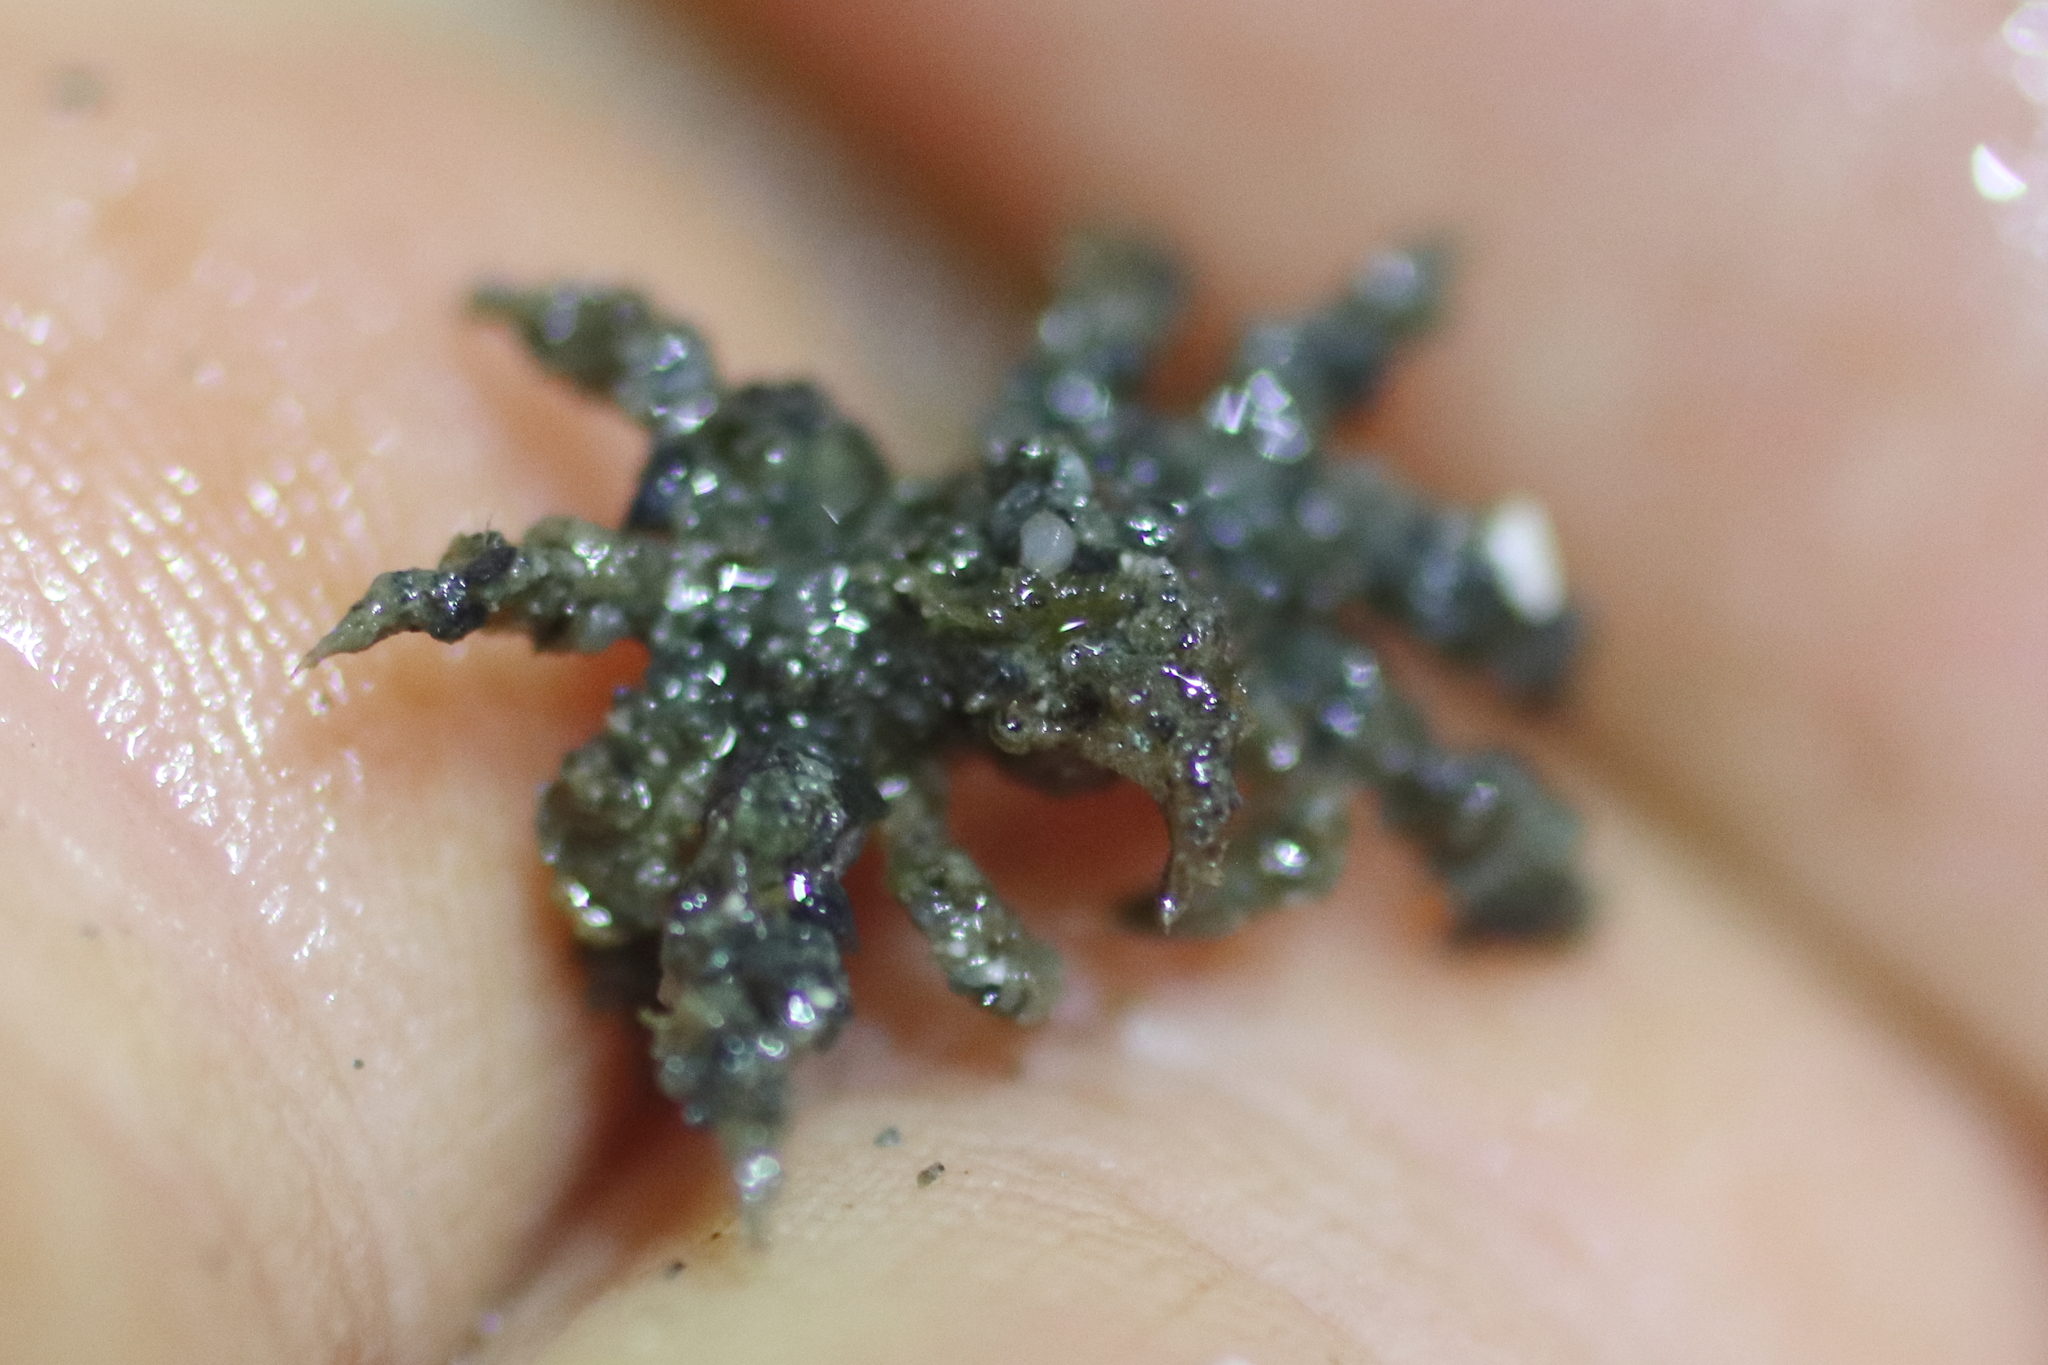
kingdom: Animalia
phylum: Arthropoda
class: Malacostraca
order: Decapoda
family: Oregoniidae
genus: Oregonia
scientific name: Oregonia gracilis
